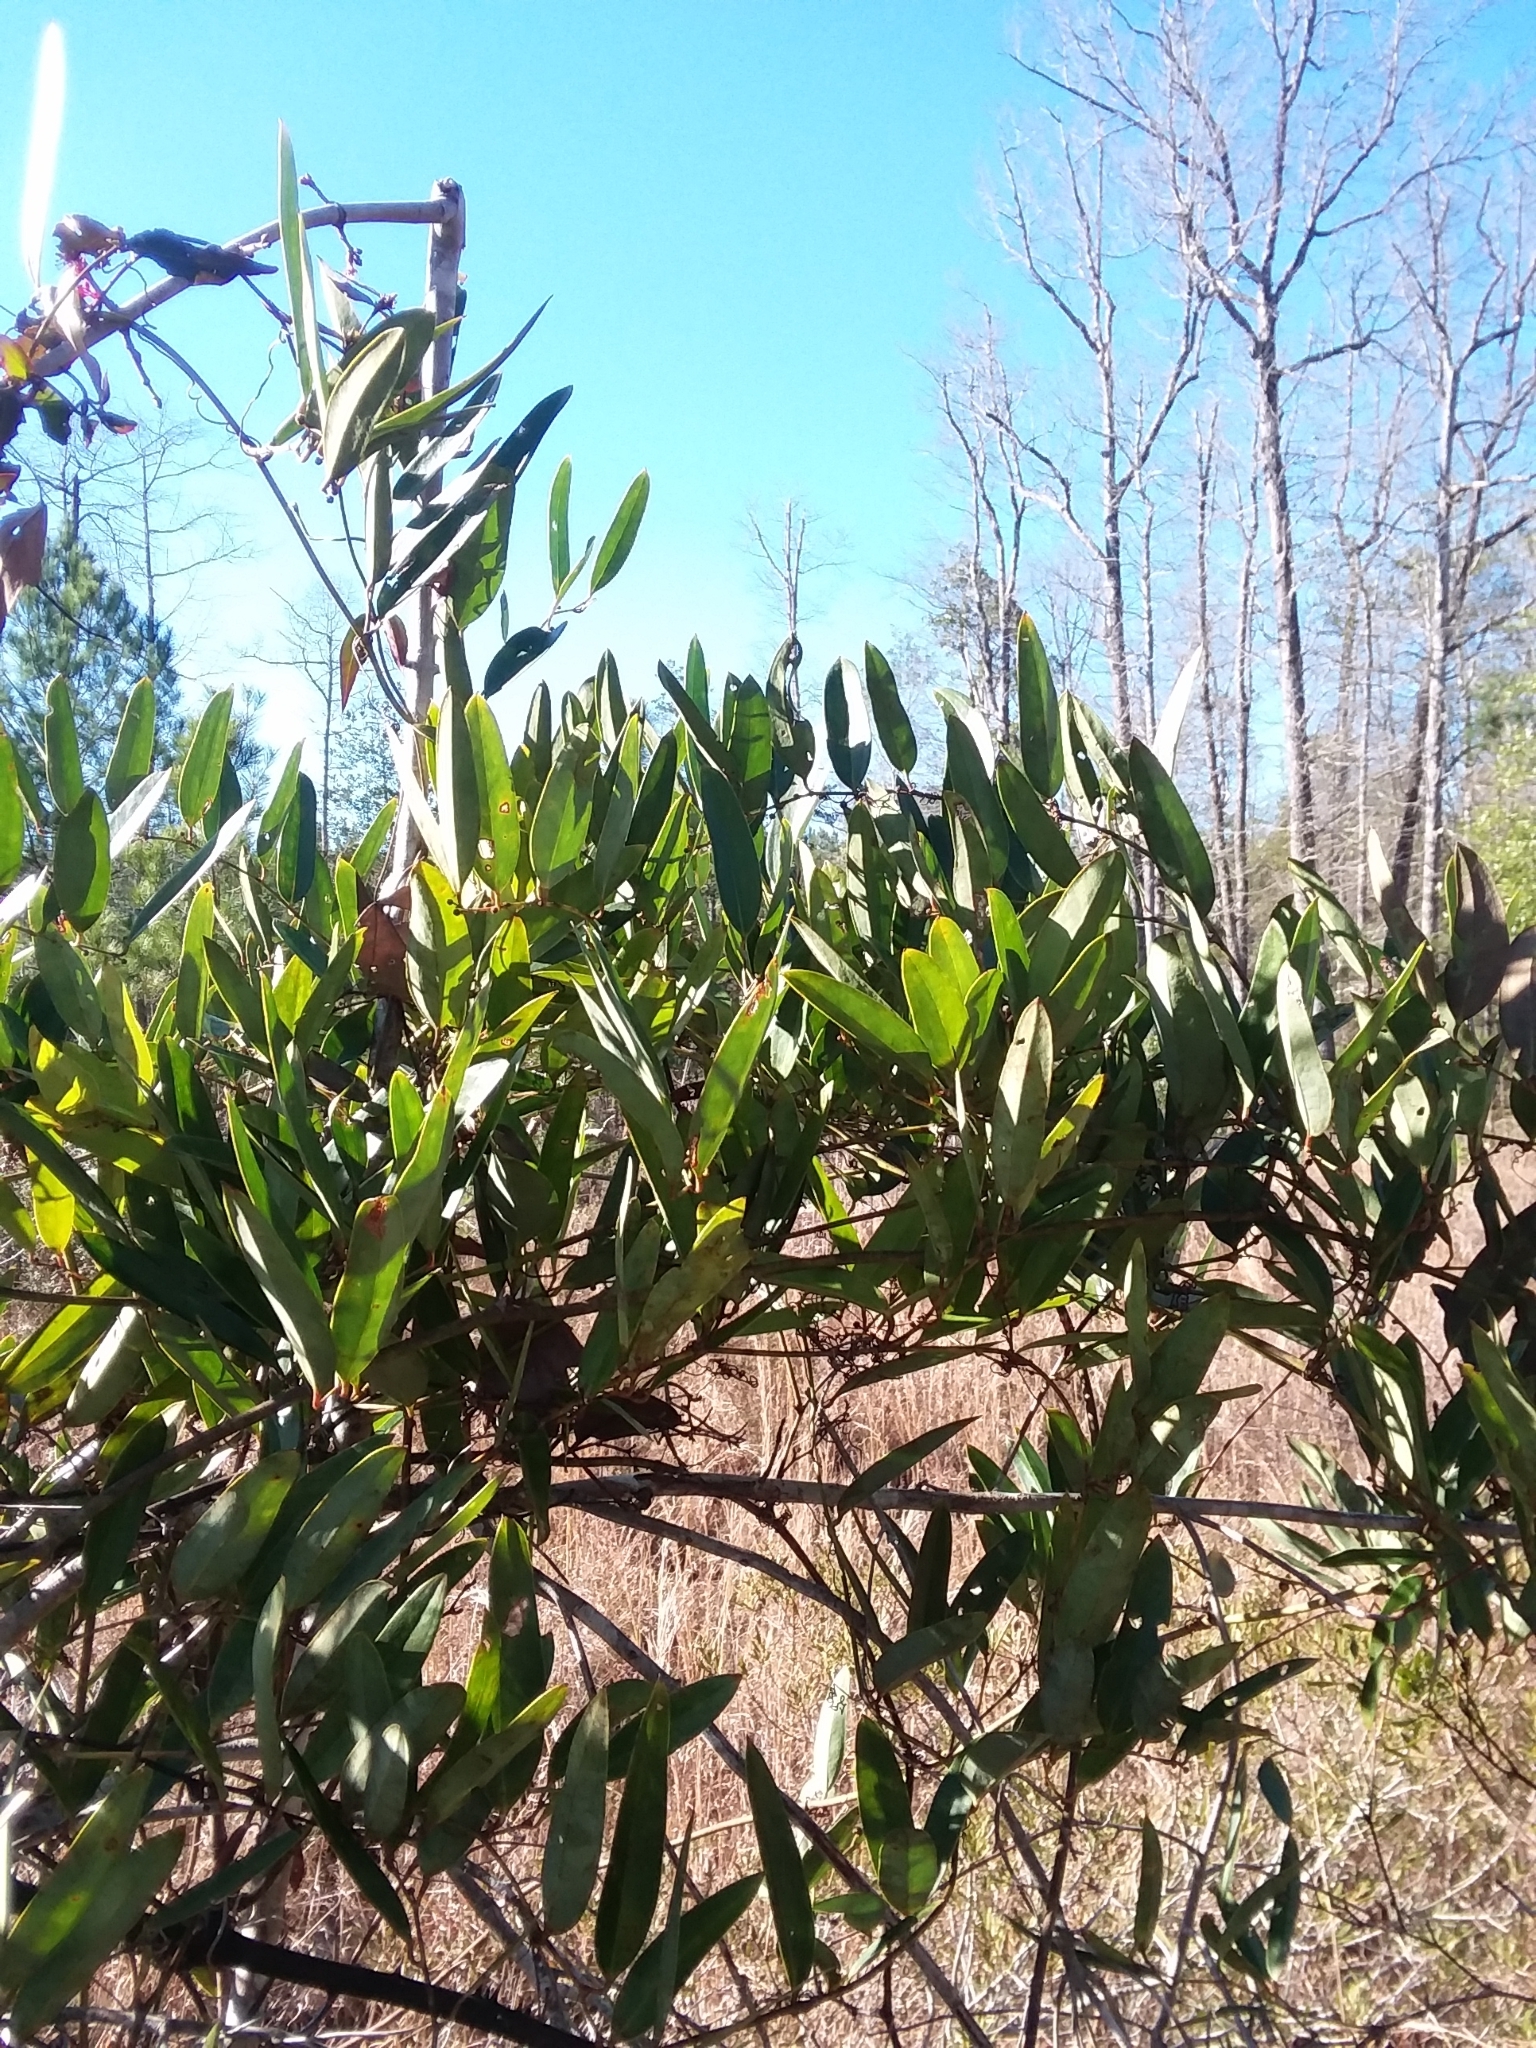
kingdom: Plantae
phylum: Tracheophyta
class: Liliopsida
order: Liliales
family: Smilacaceae
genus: Smilax
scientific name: Smilax laurifolia
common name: Bamboovine
